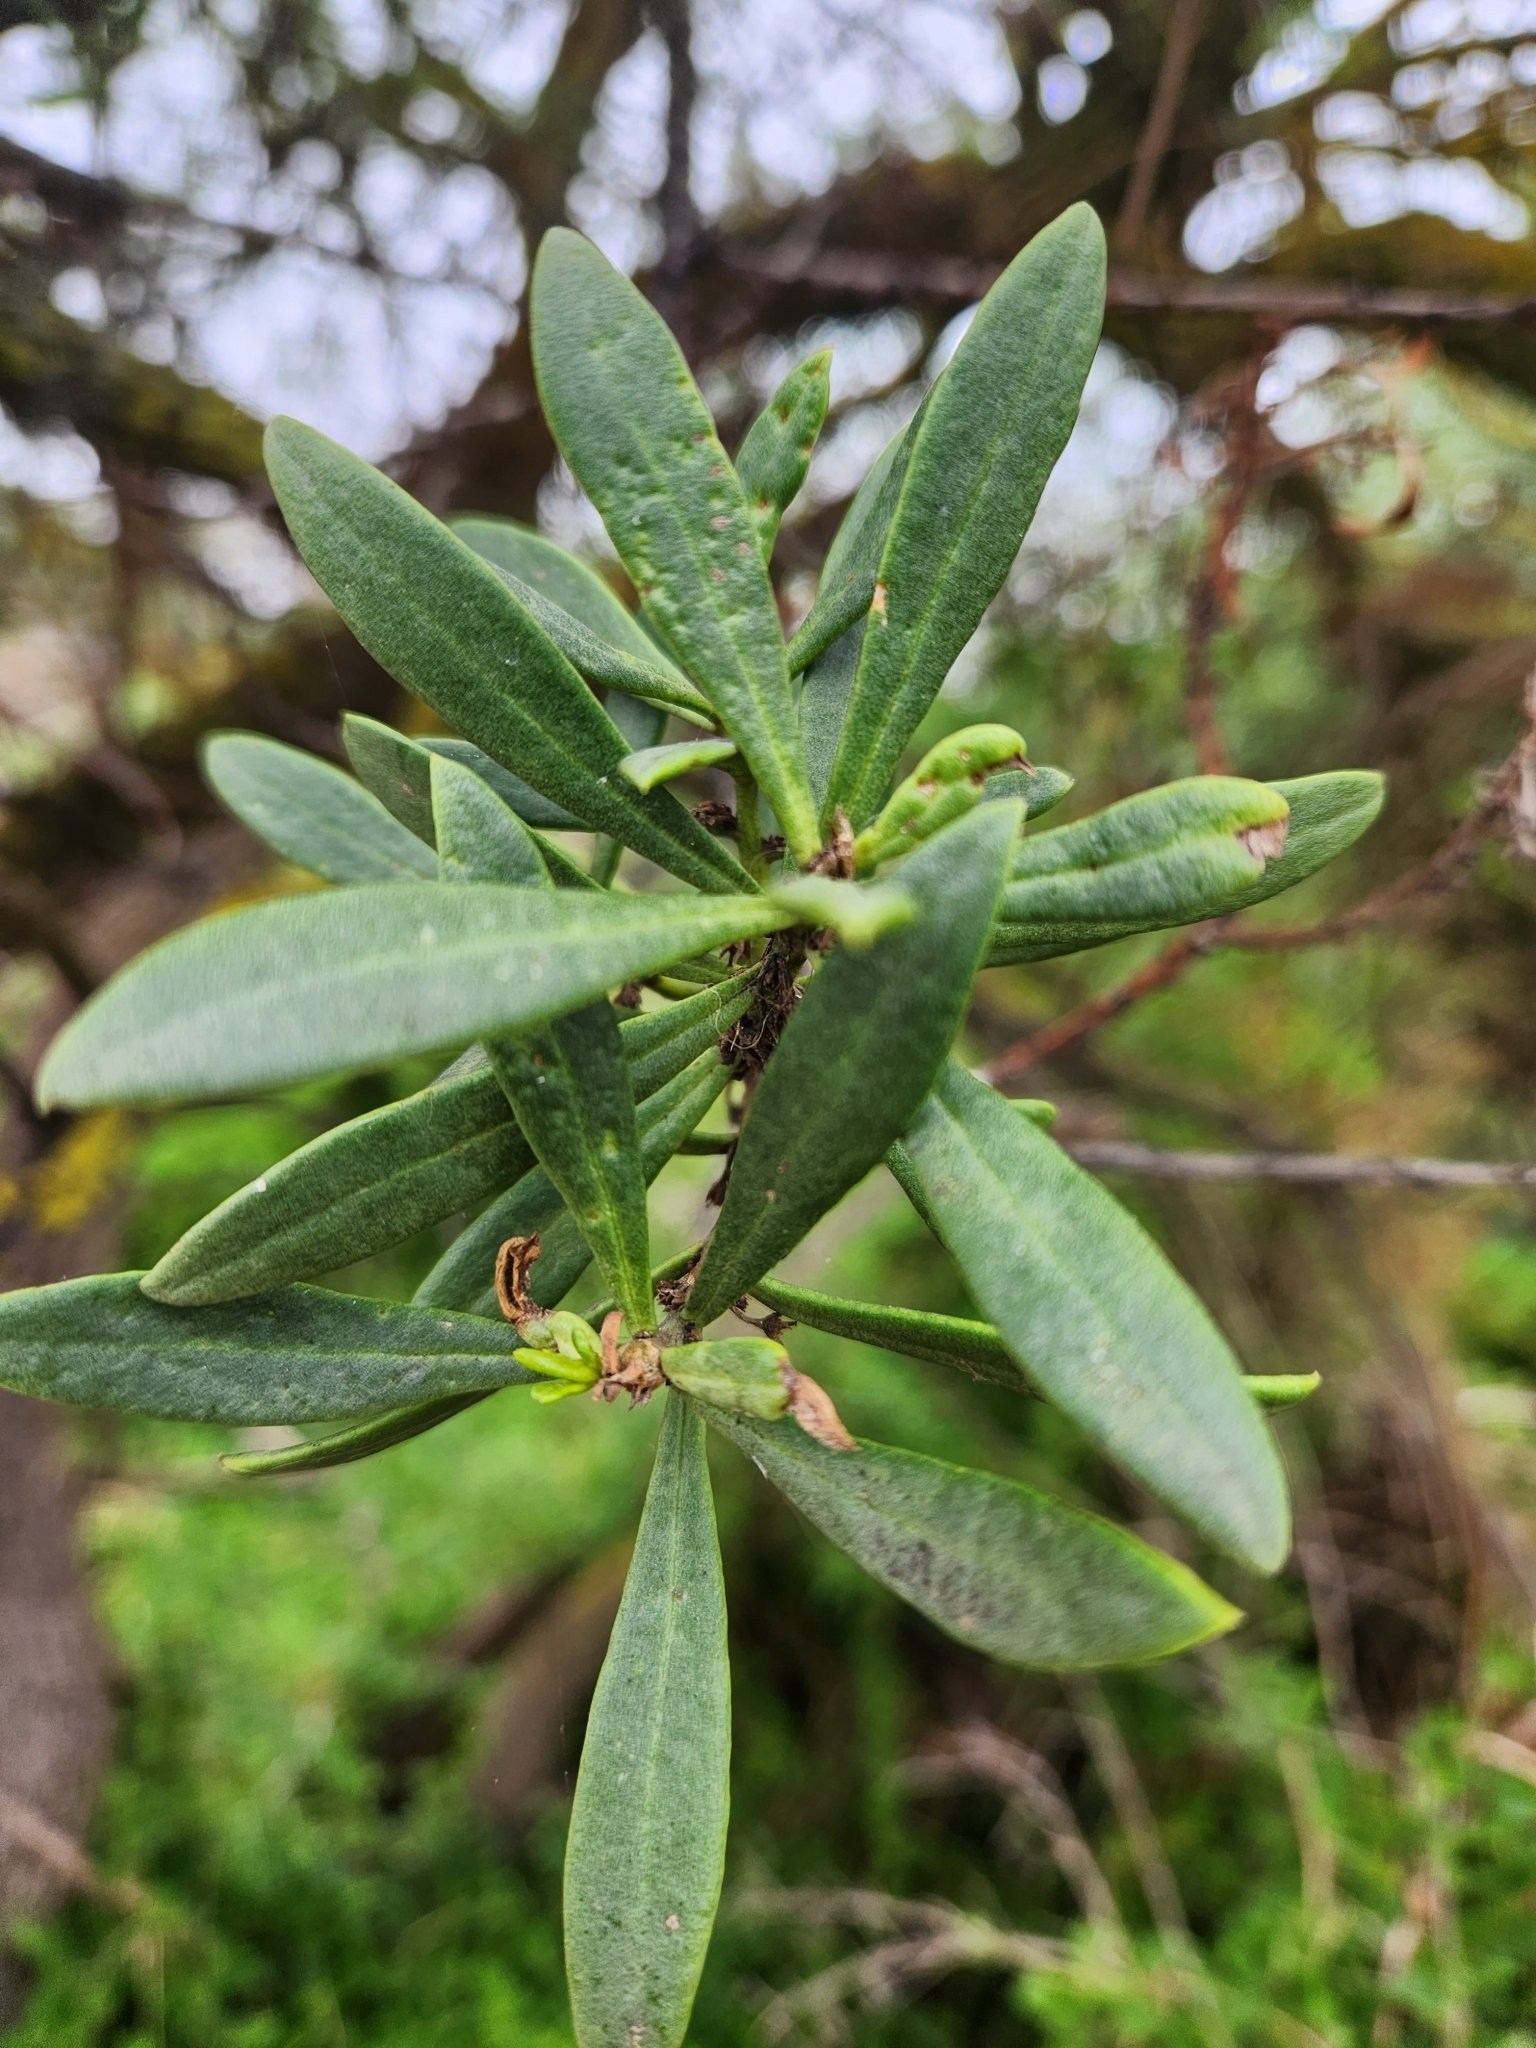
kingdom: Plantae
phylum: Tracheophyta
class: Magnoliopsida
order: Lamiales
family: Scrophulariaceae
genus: Myoporum
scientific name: Myoporum insulare
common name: Common boobialla
